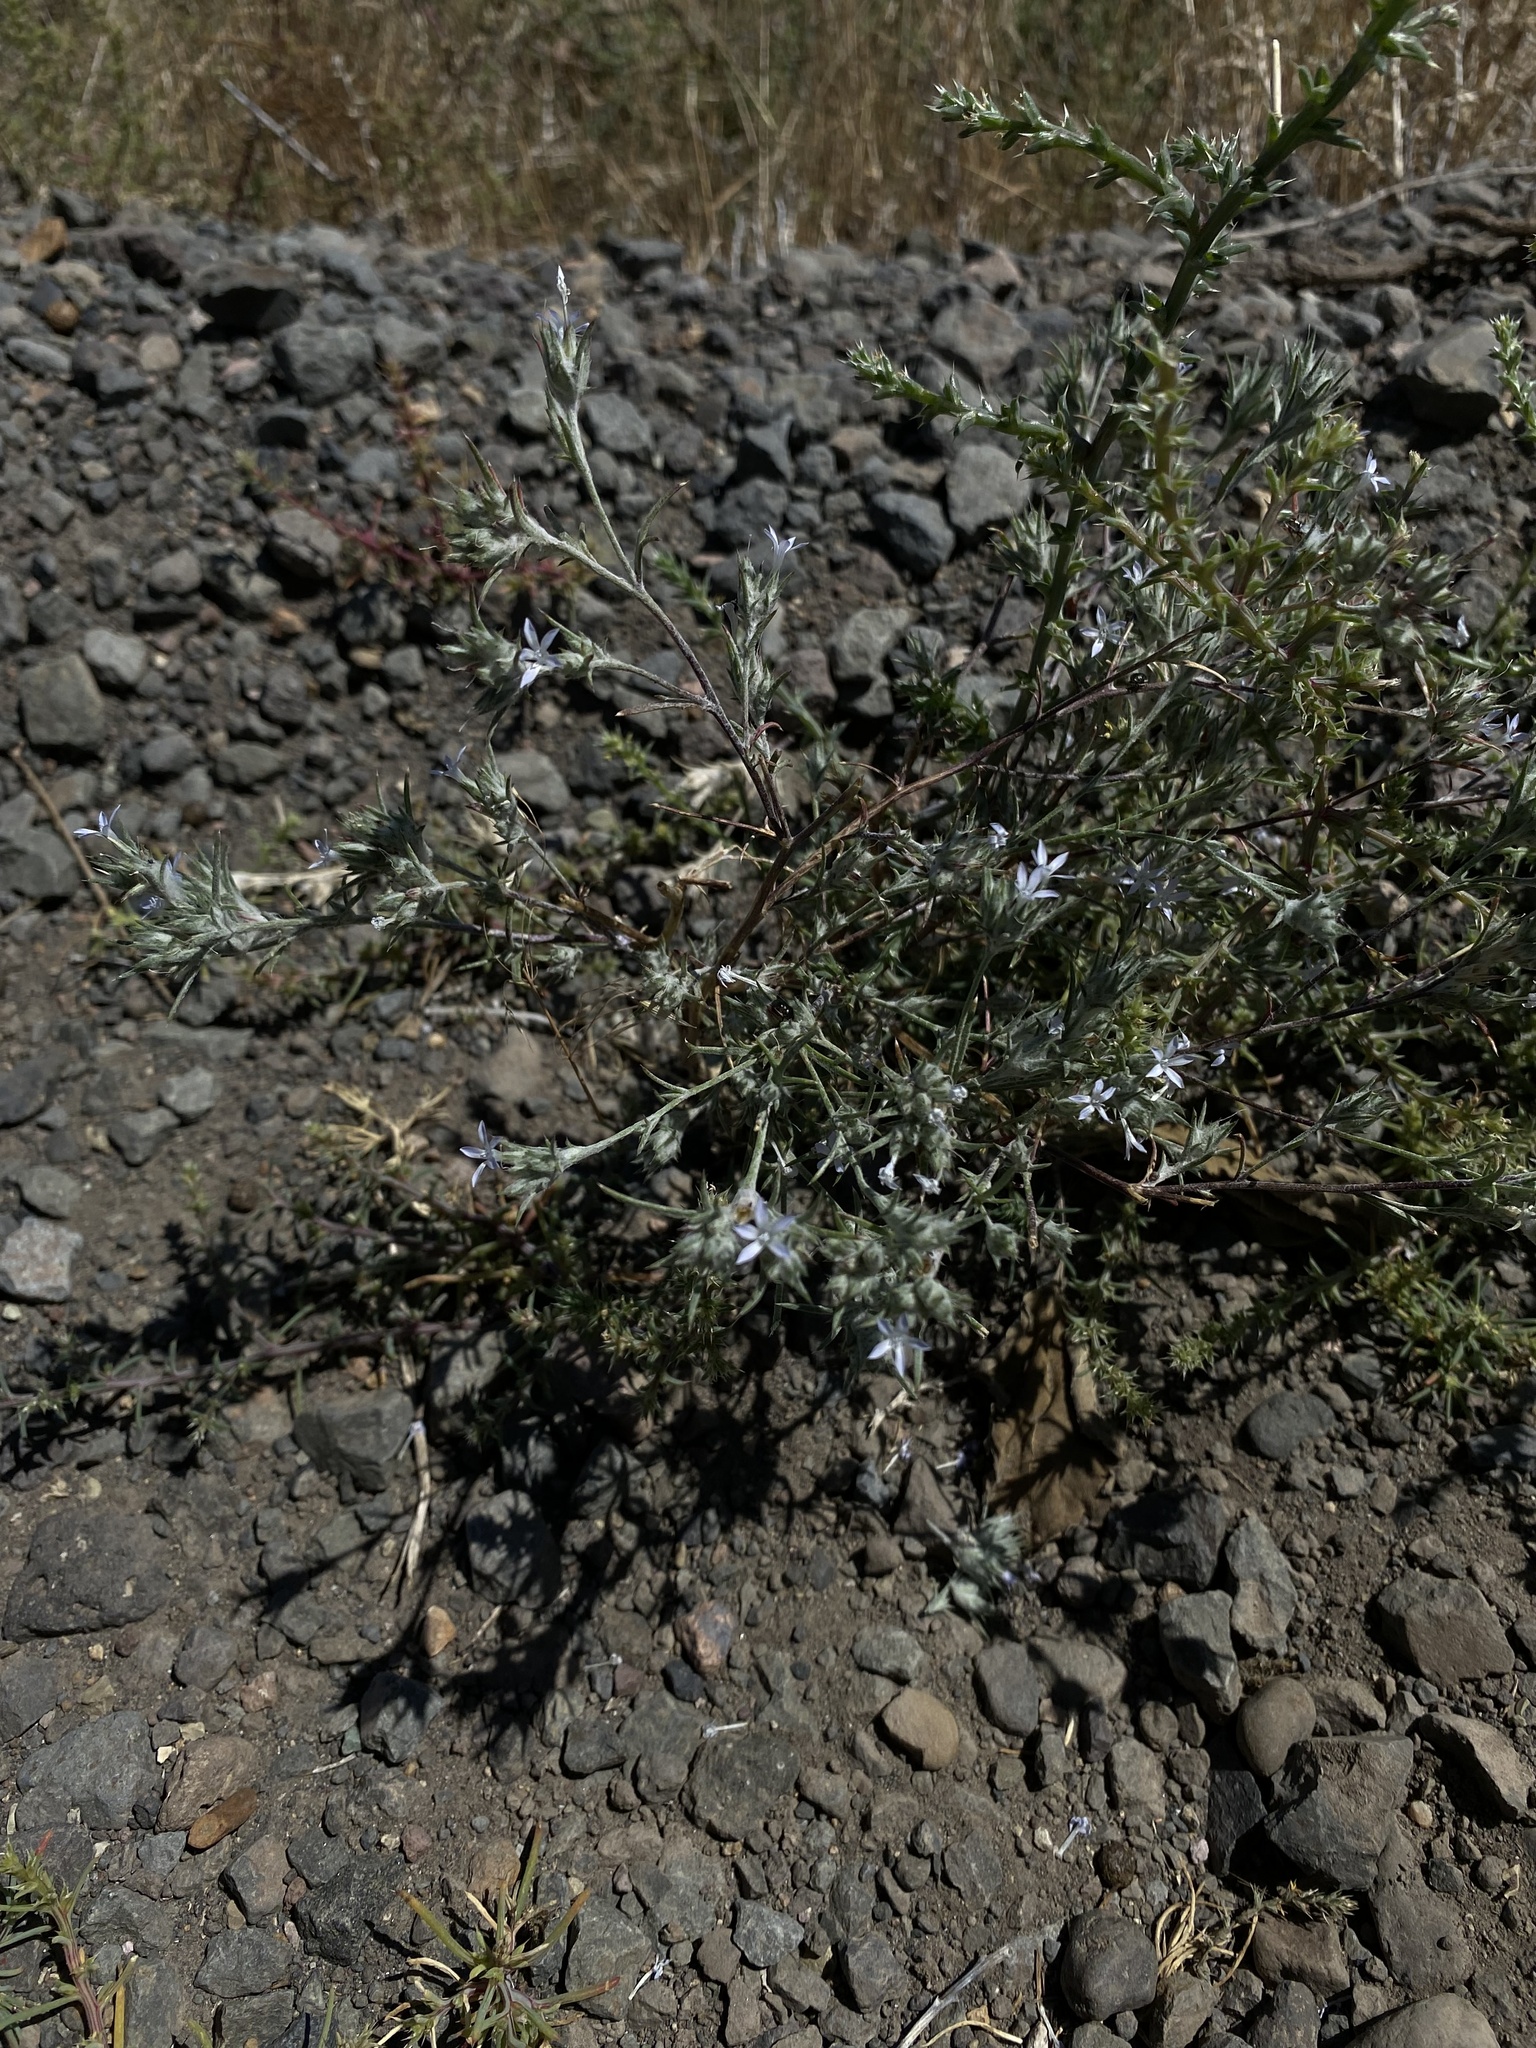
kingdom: Plantae
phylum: Tracheophyta
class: Magnoliopsida
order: Ericales
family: Polemoniaceae
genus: Eriastrum
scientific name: Eriastrum wilcoxii
